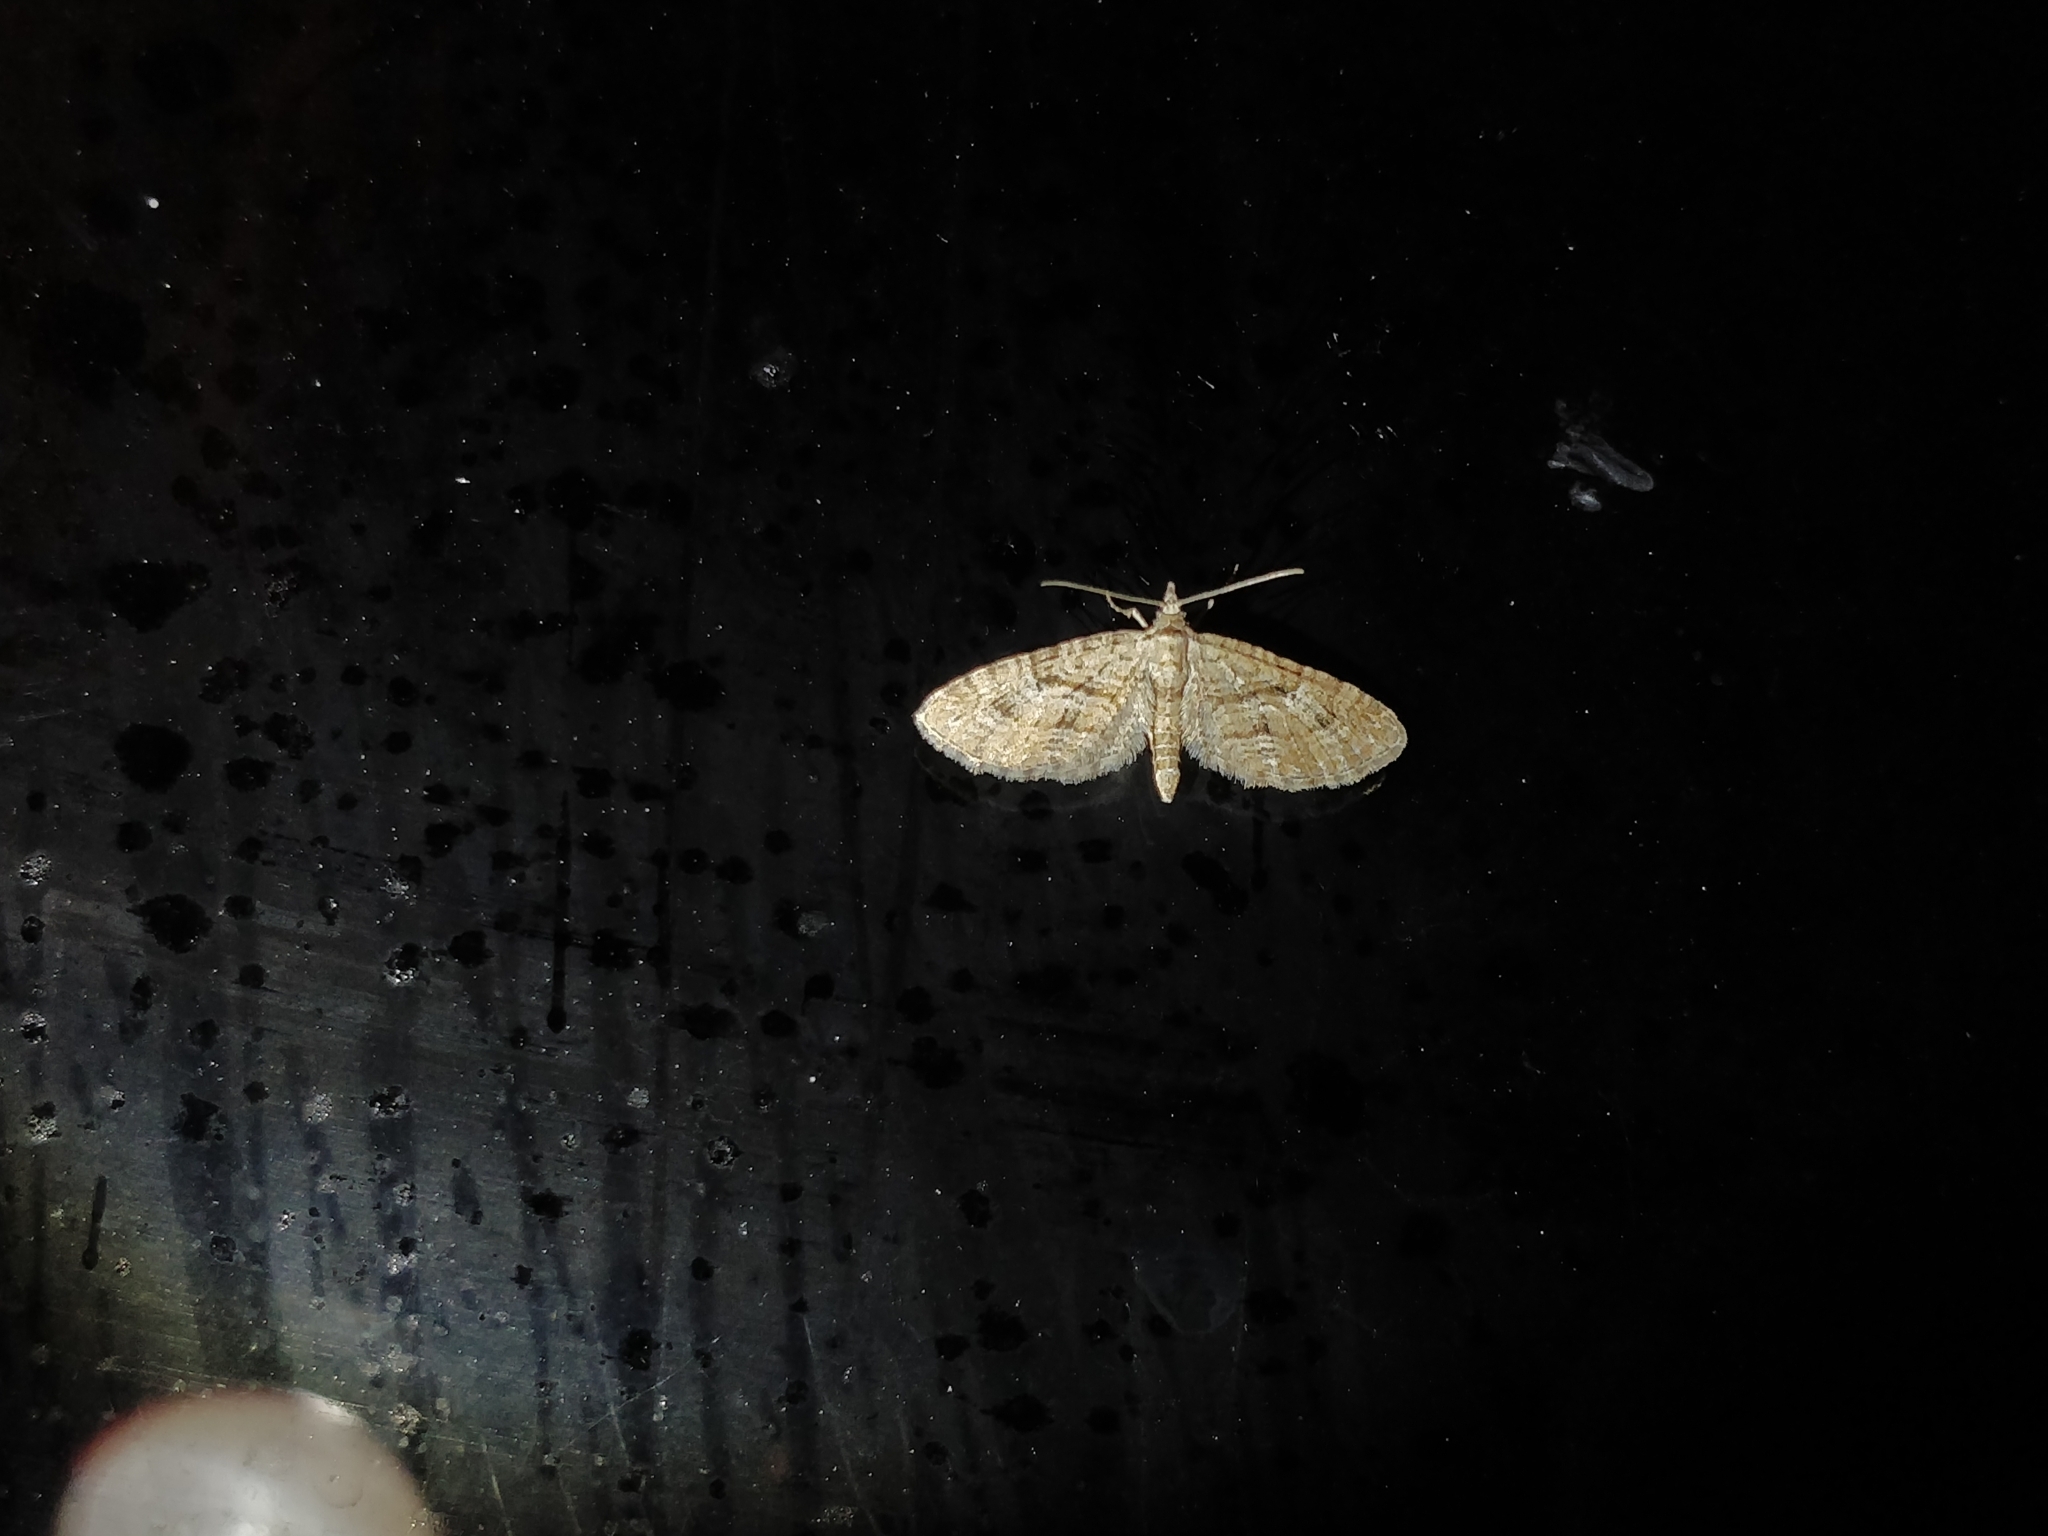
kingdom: Animalia
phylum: Arthropoda
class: Insecta
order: Lepidoptera
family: Geometridae
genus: Eupithecia
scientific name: Eupithecia pusillata
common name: Juniper pug
